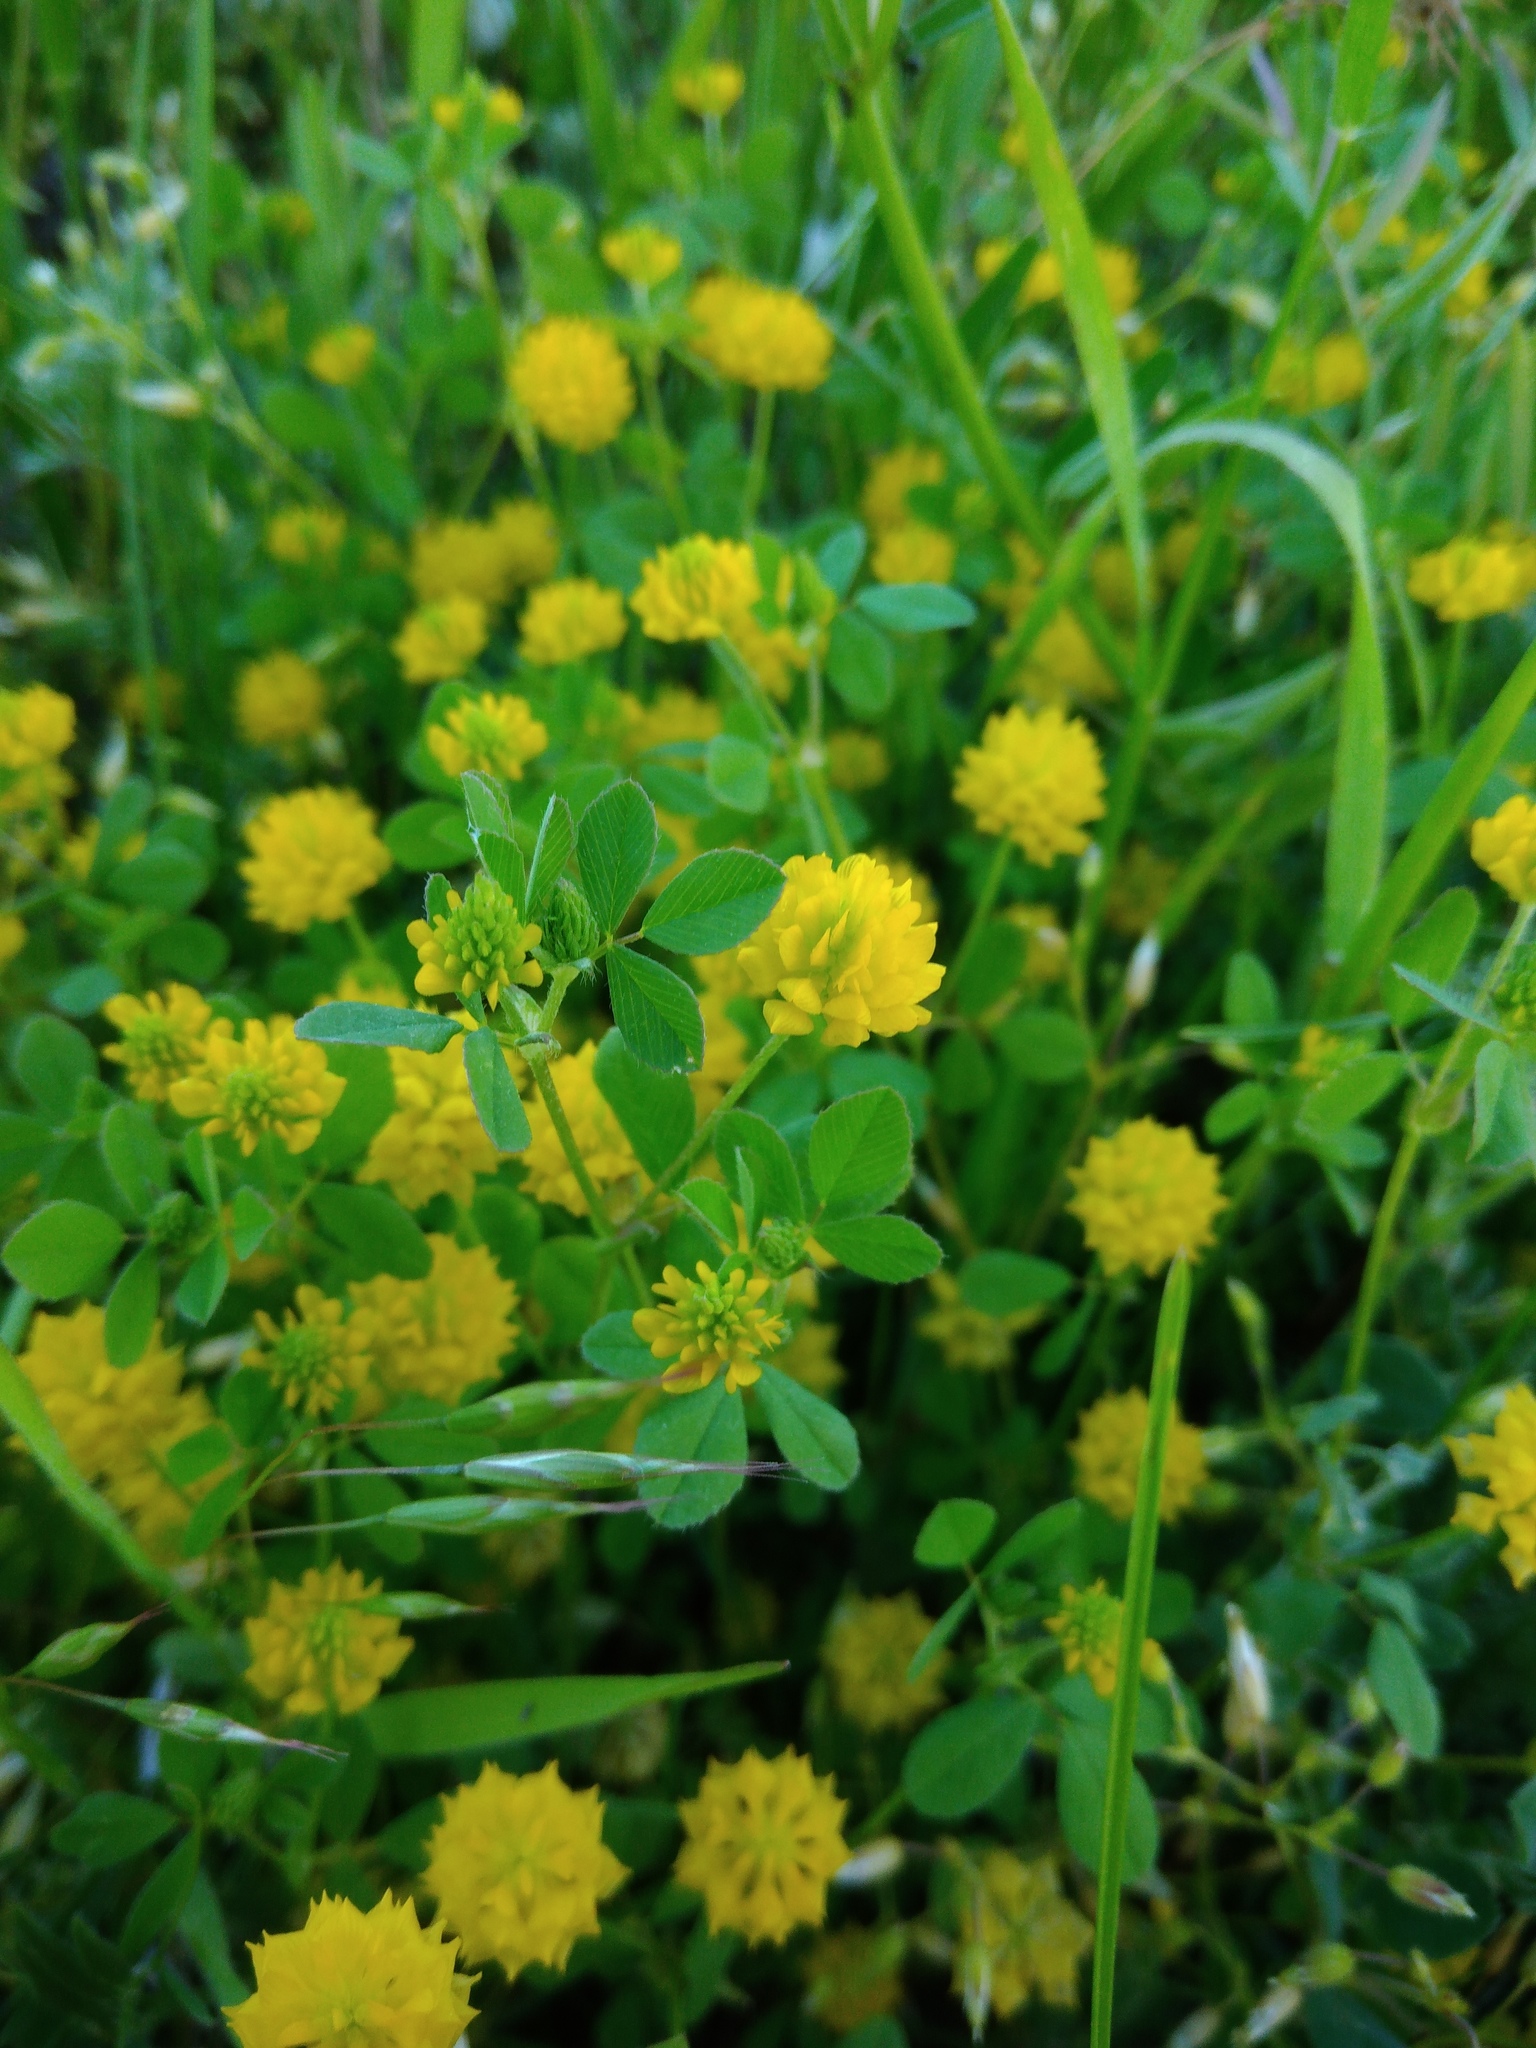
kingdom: Plantae
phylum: Tracheophyta
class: Magnoliopsida
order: Fabales
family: Fabaceae
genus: Trifolium
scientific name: Trifolium campestre
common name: Field clover
